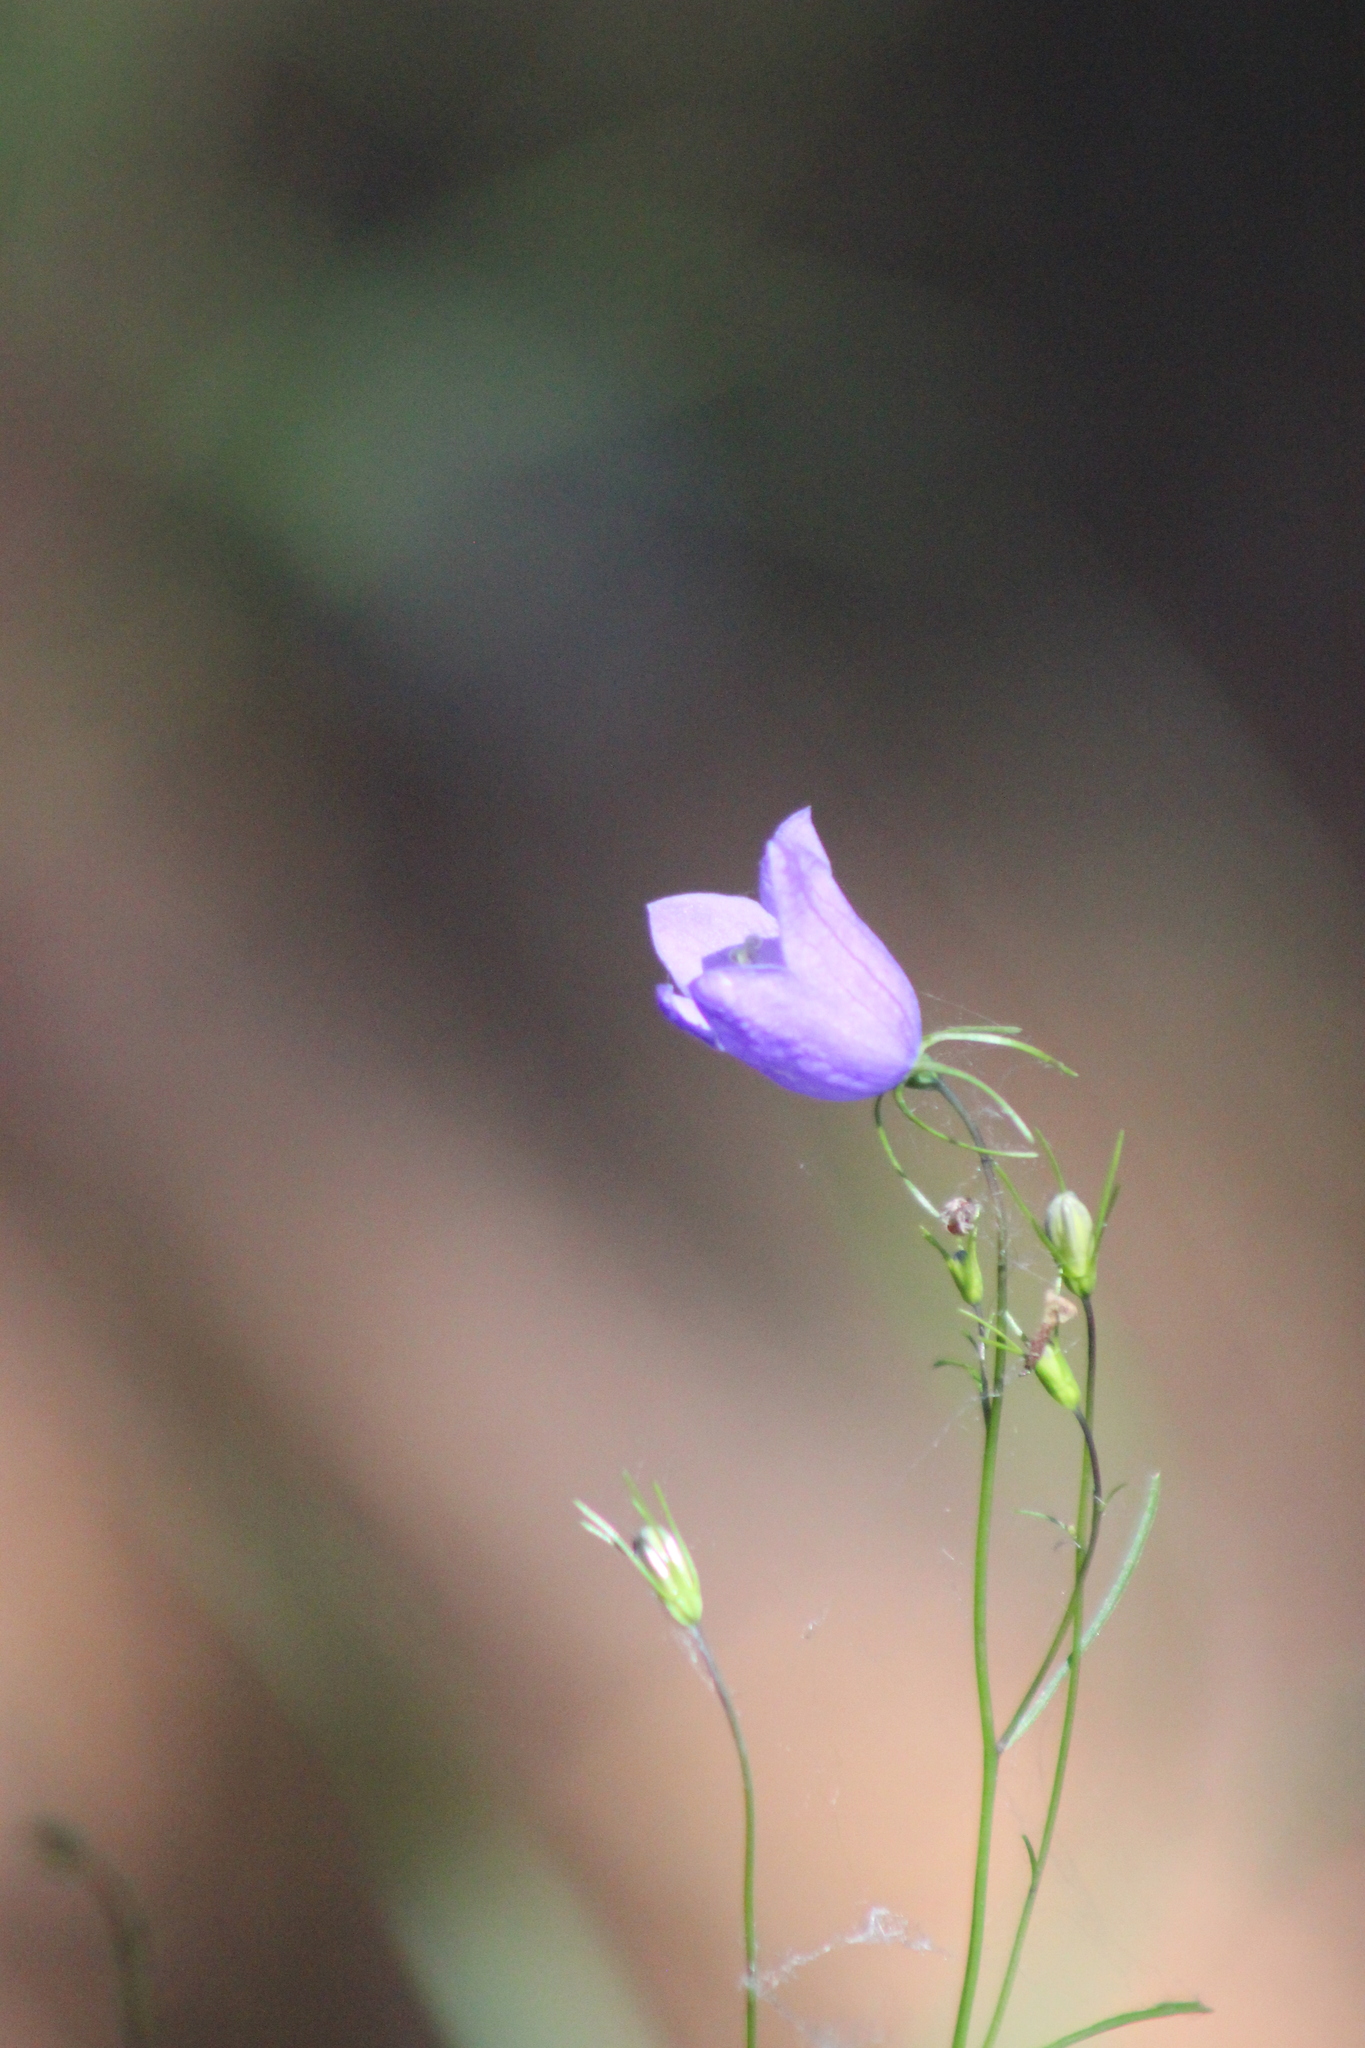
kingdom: Plantae
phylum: Tracheophyta
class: Magnoliopsida
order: Asterales
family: Campanulaceae
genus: Campanula
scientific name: Campanula rotundifolia
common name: Harebell
